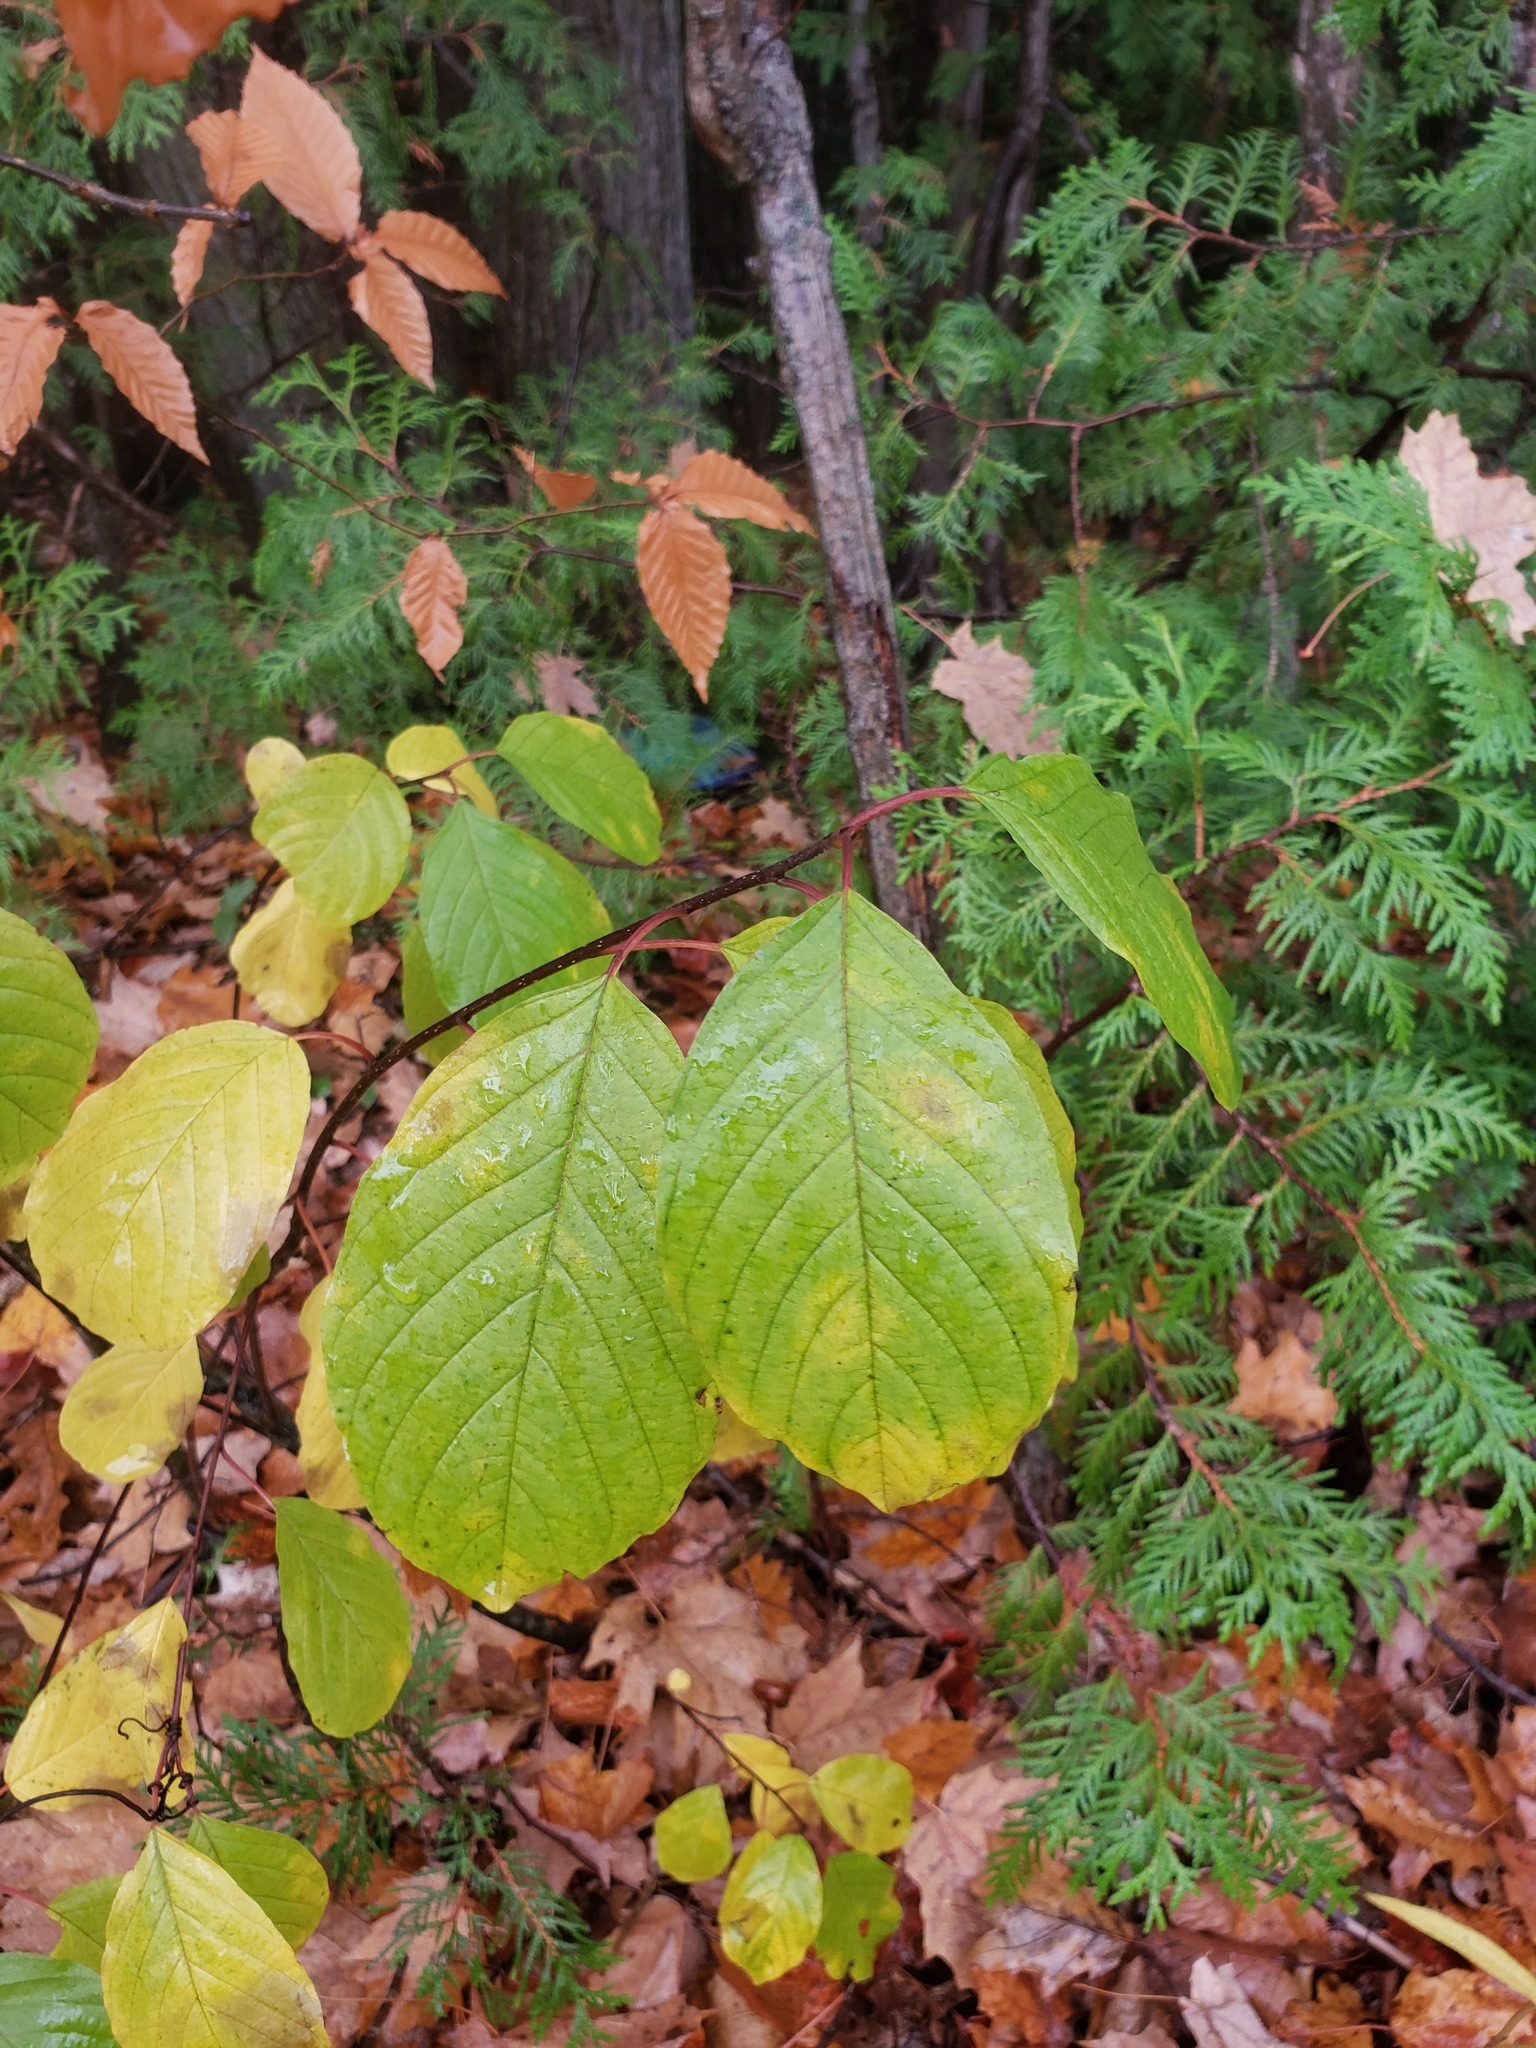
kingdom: Plantae
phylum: Tracheophyta
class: Magnoliopsida
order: Rosales
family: Rhamnaceae
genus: Frangula
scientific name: Frangula alnus
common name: Alder buckthorn
